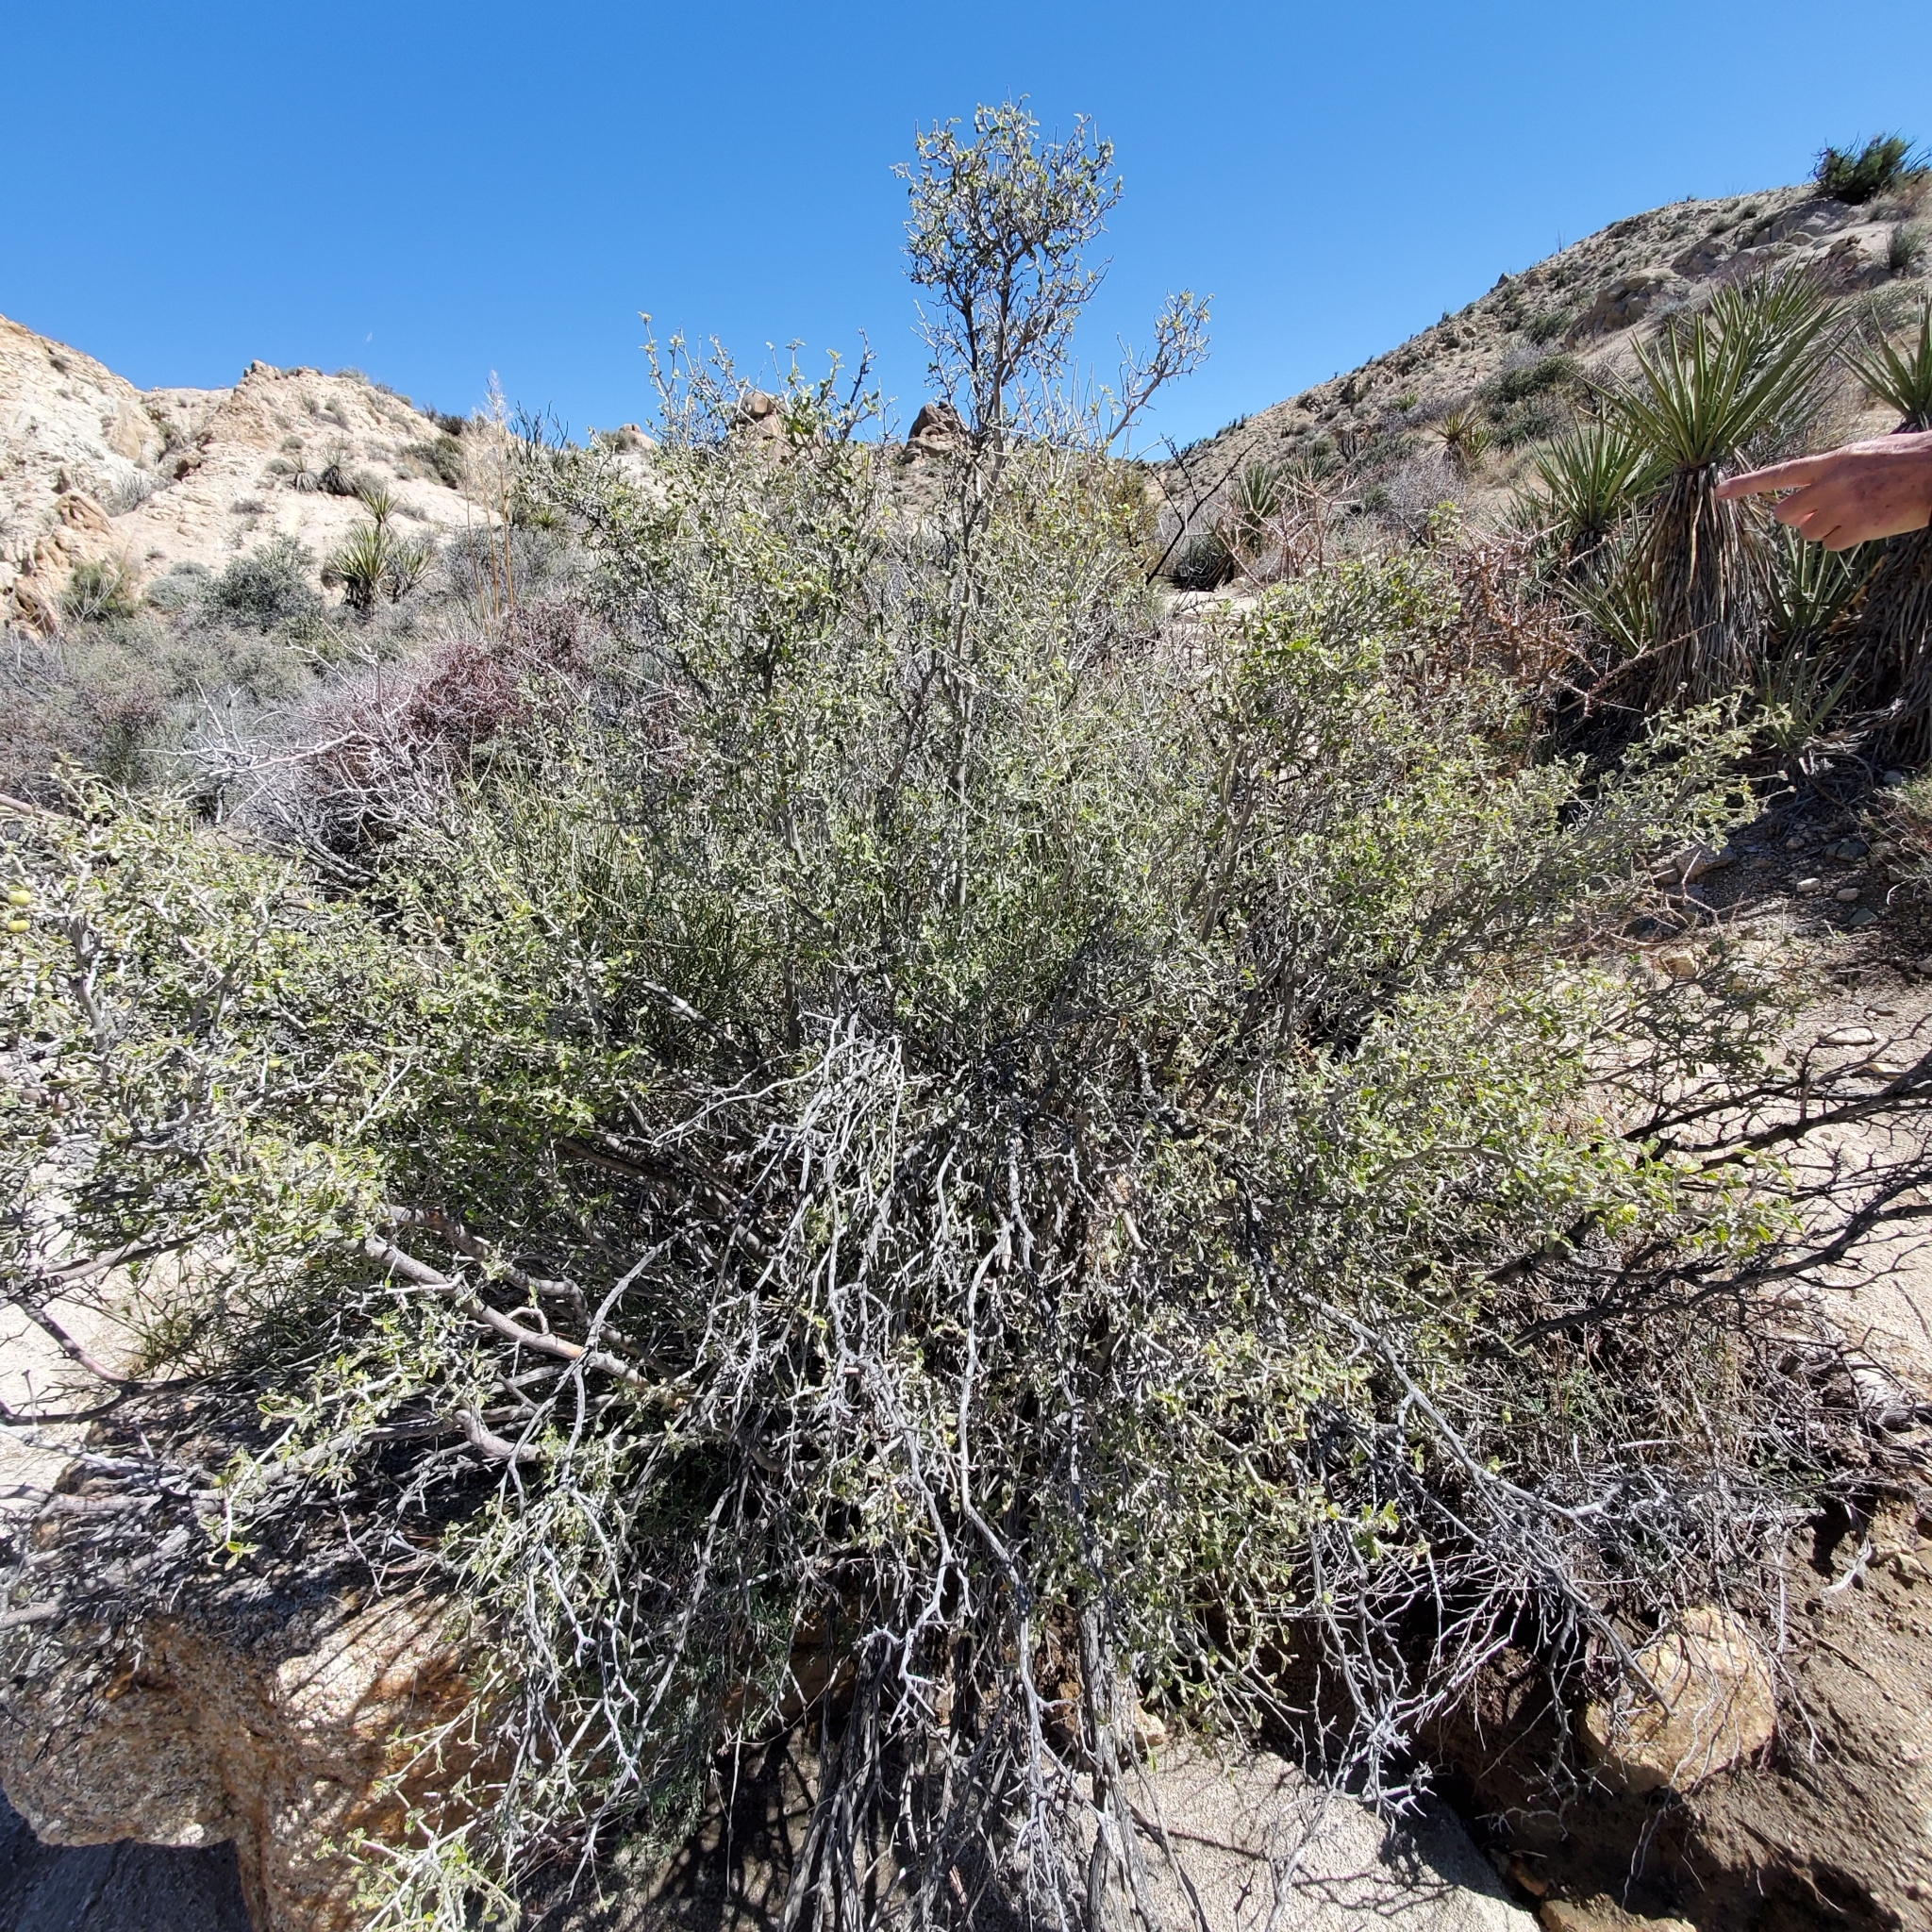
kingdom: Plantae
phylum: Tracheophyta
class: Magnoliopsida
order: Malpighiales
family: Euphorbiaceae
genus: Bernardia
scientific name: Bernardia incana
